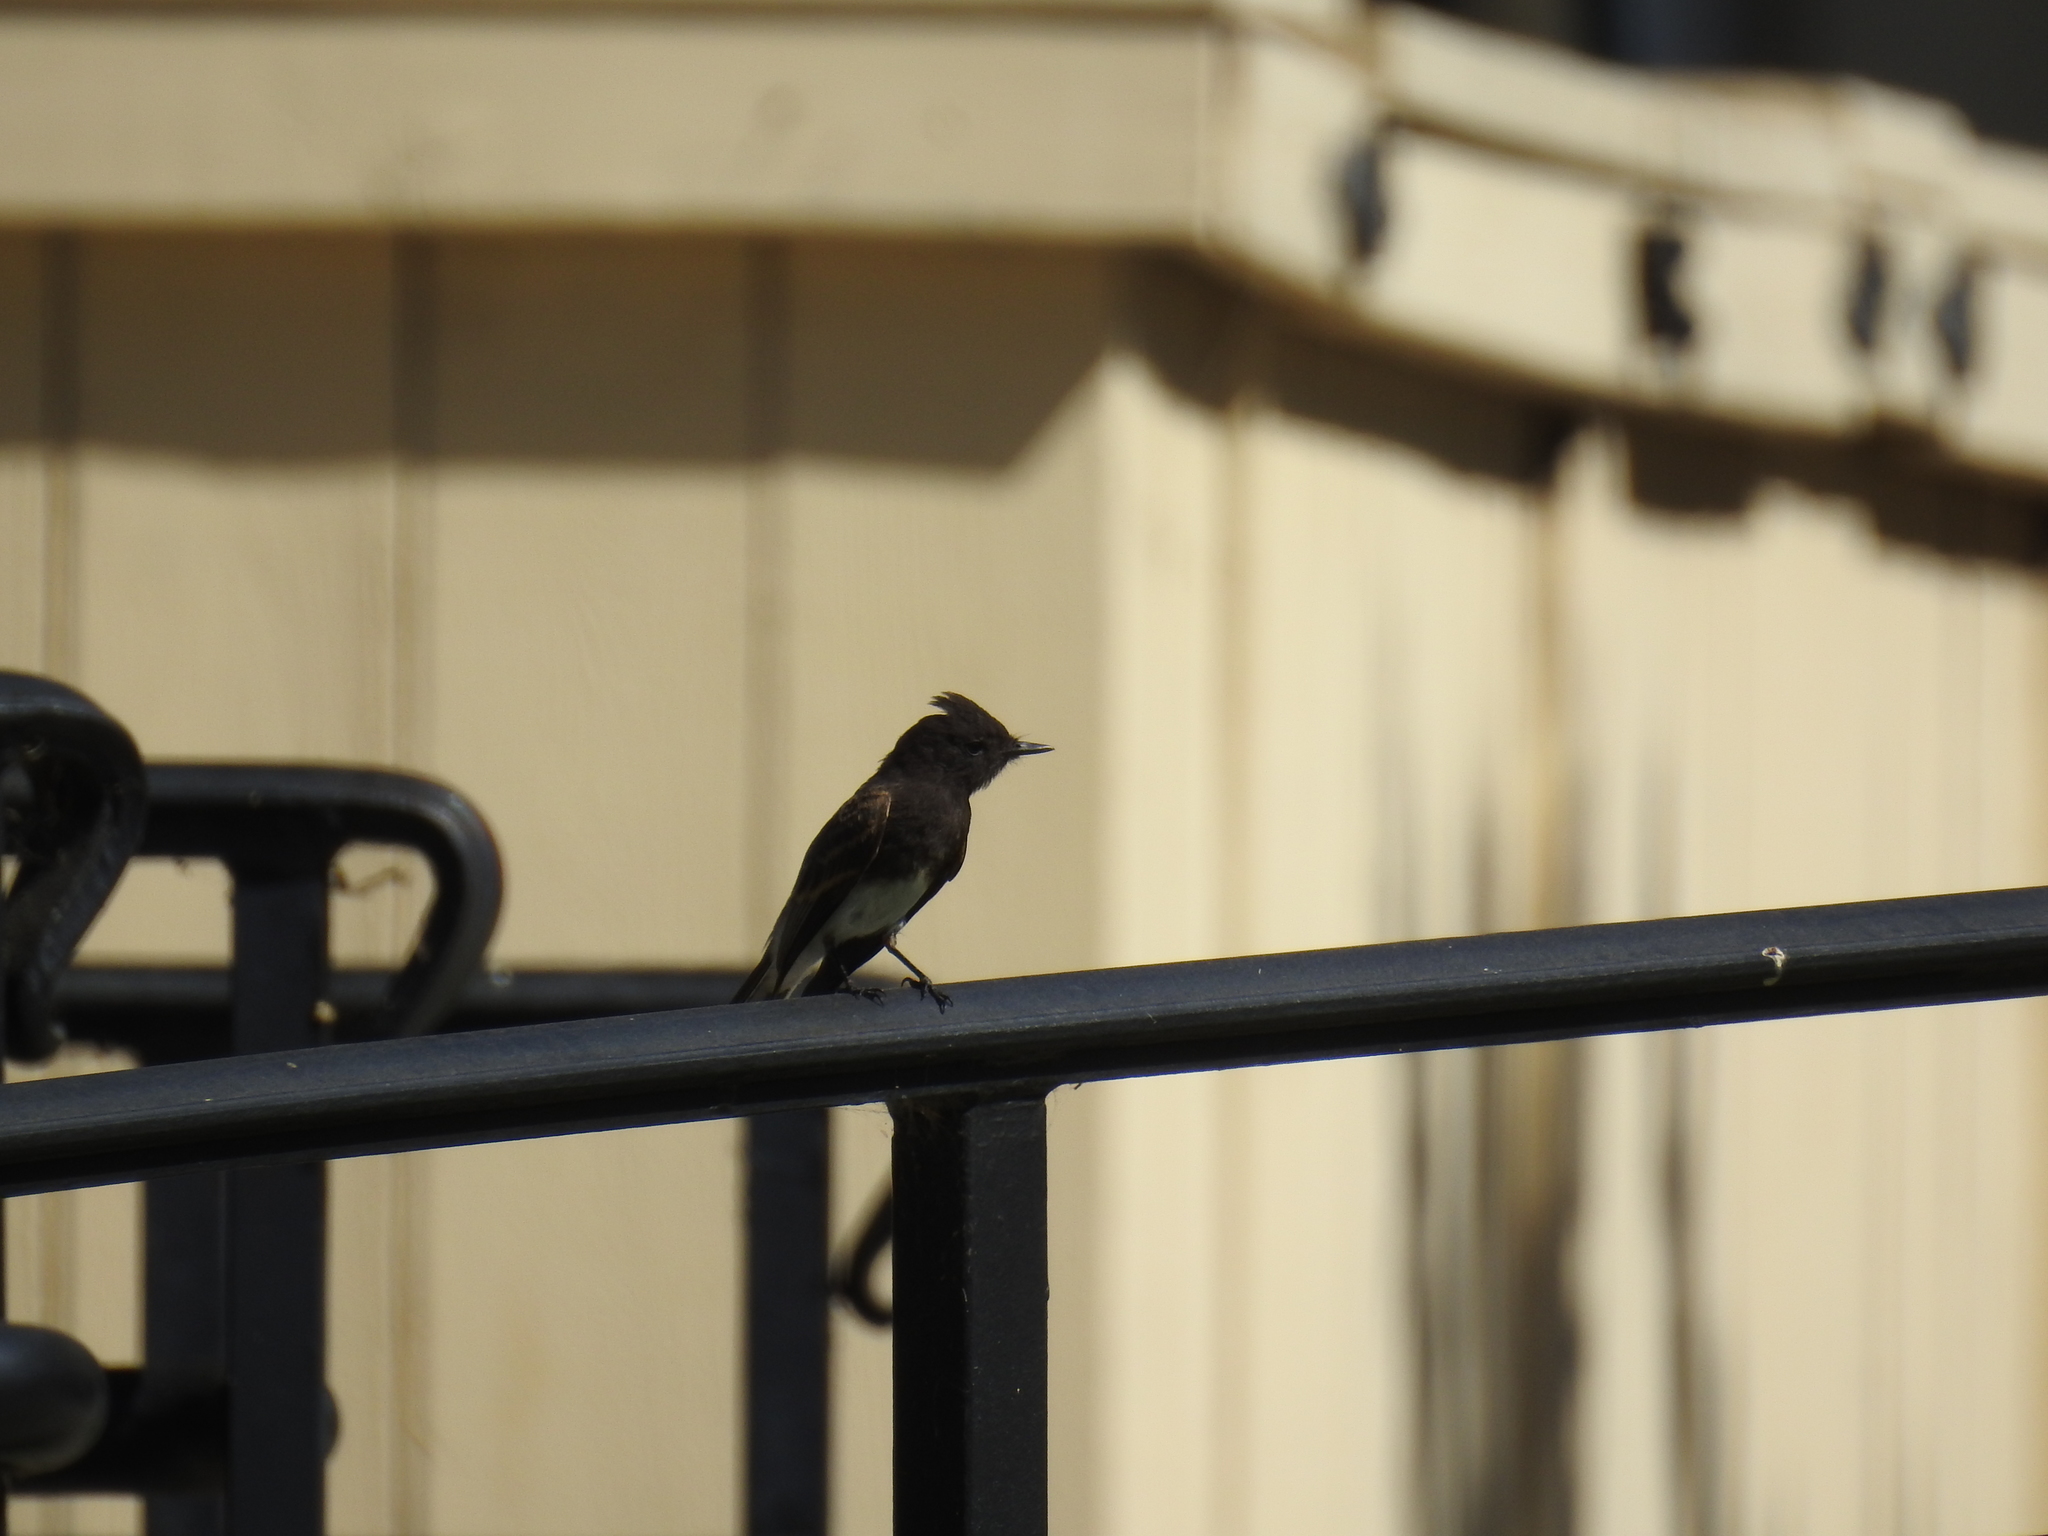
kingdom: Animalia
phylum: Chordata
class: Aves
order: Passeriformes
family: Tyrannidae
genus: Sayornis
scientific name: Sayornis nigricans
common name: Black phoebe
